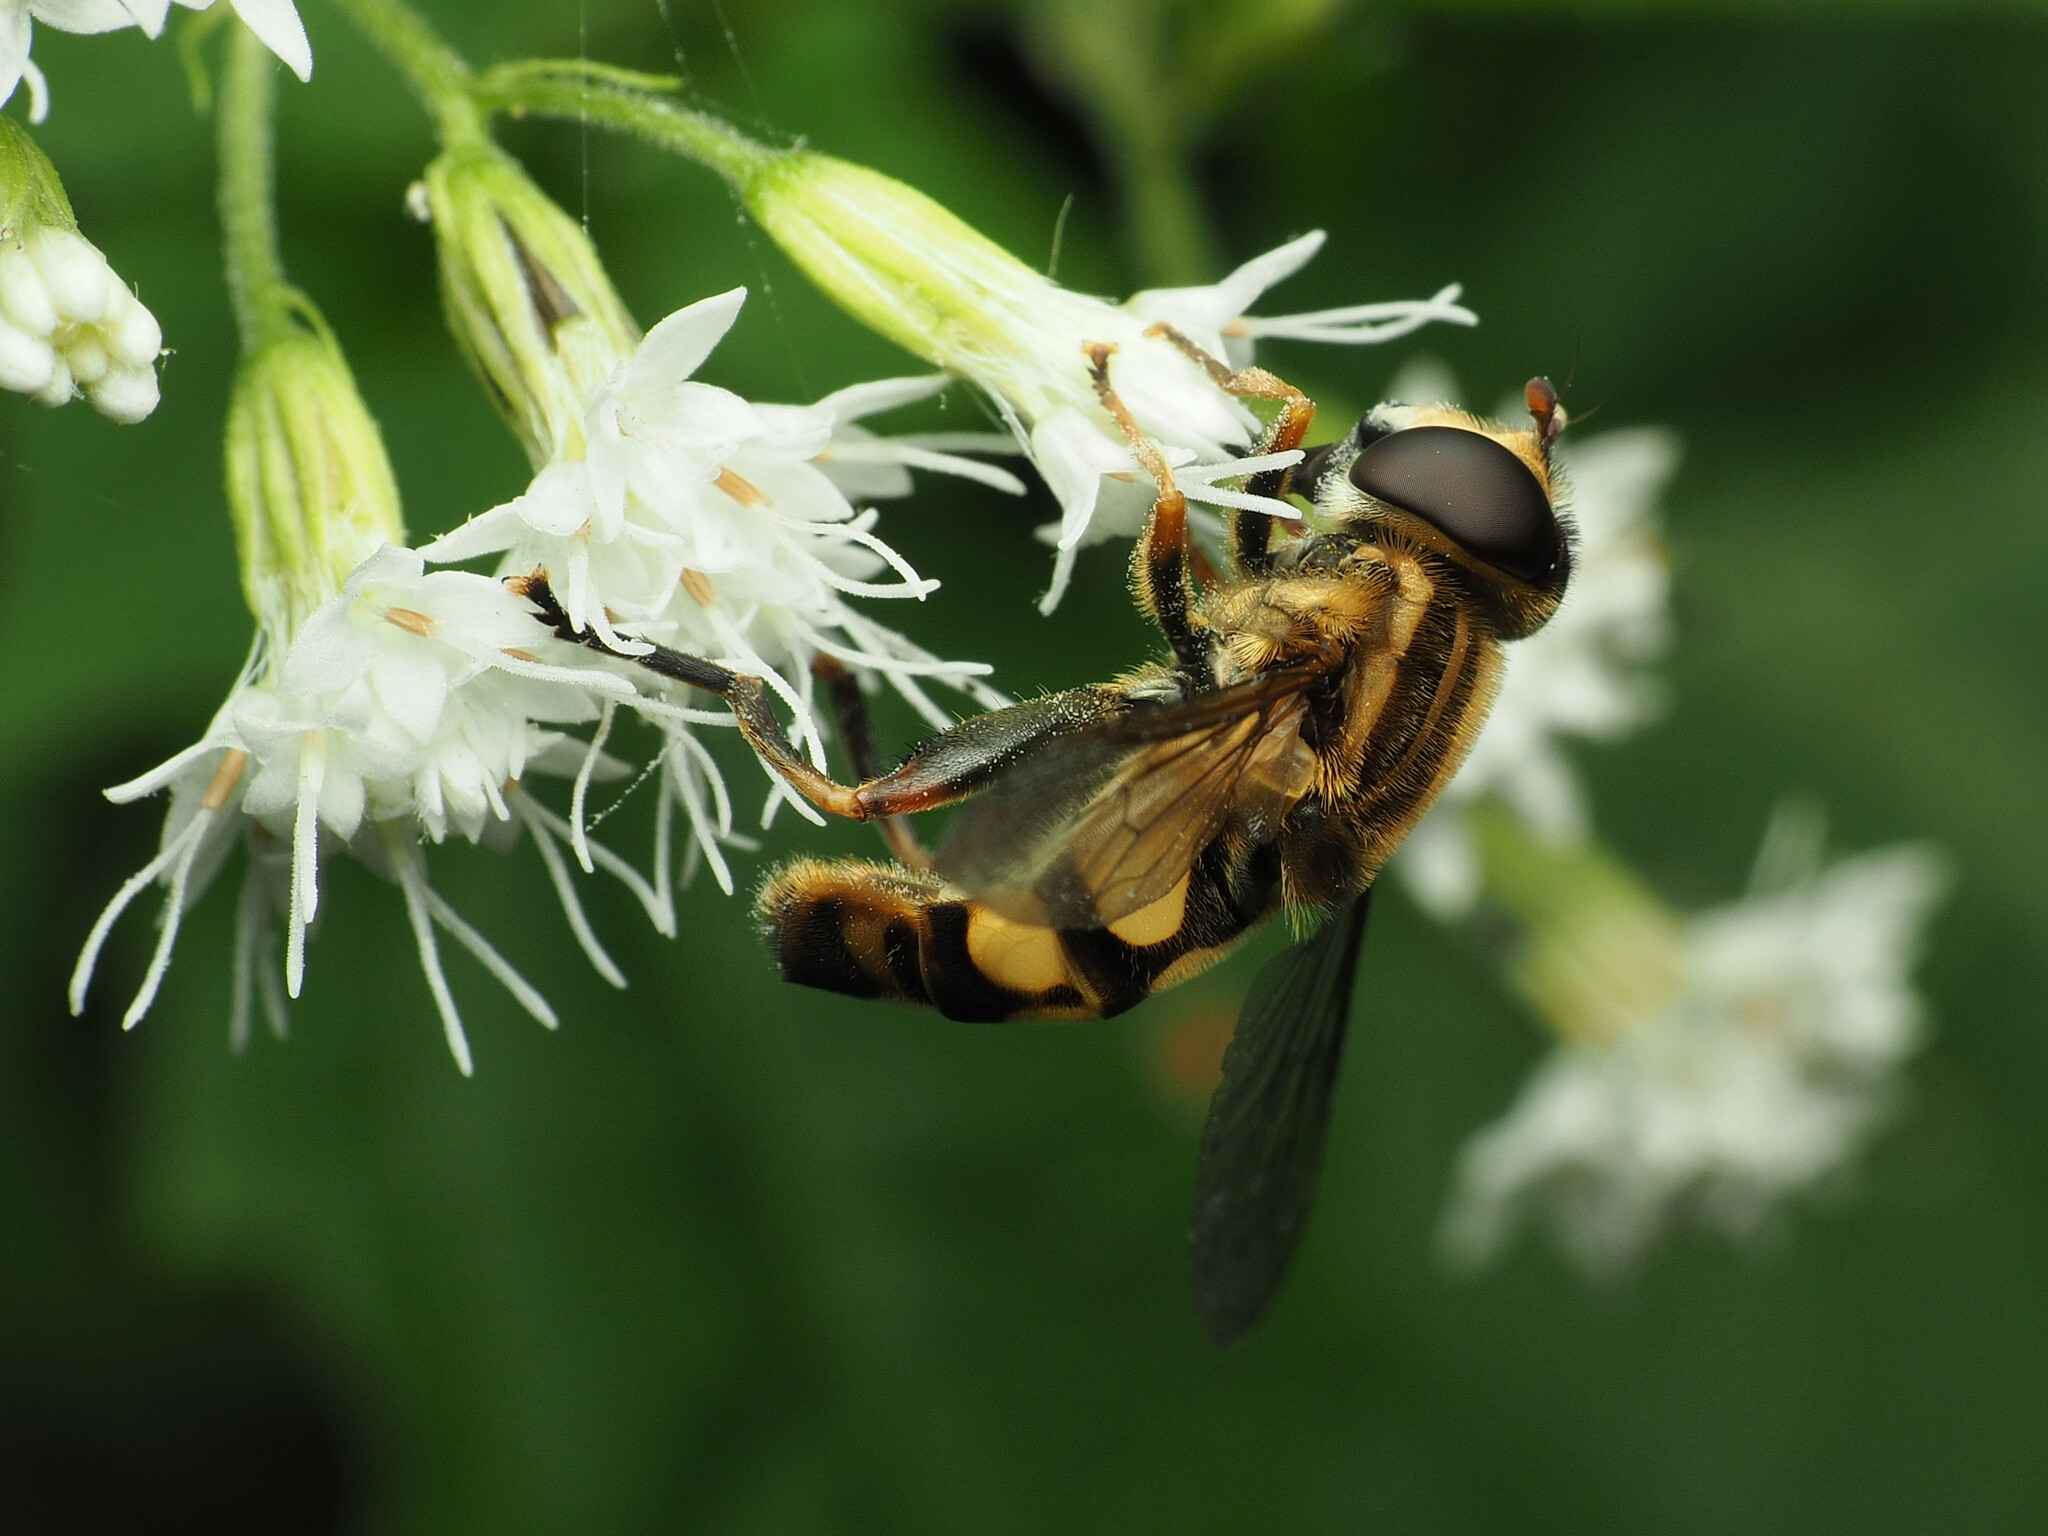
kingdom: Animalia
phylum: Arthropoda
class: Insecta
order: Diptera
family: Syrphidae
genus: Helophilus
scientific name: Helophilus fasciatus
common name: Narrow-headed marsh fly
